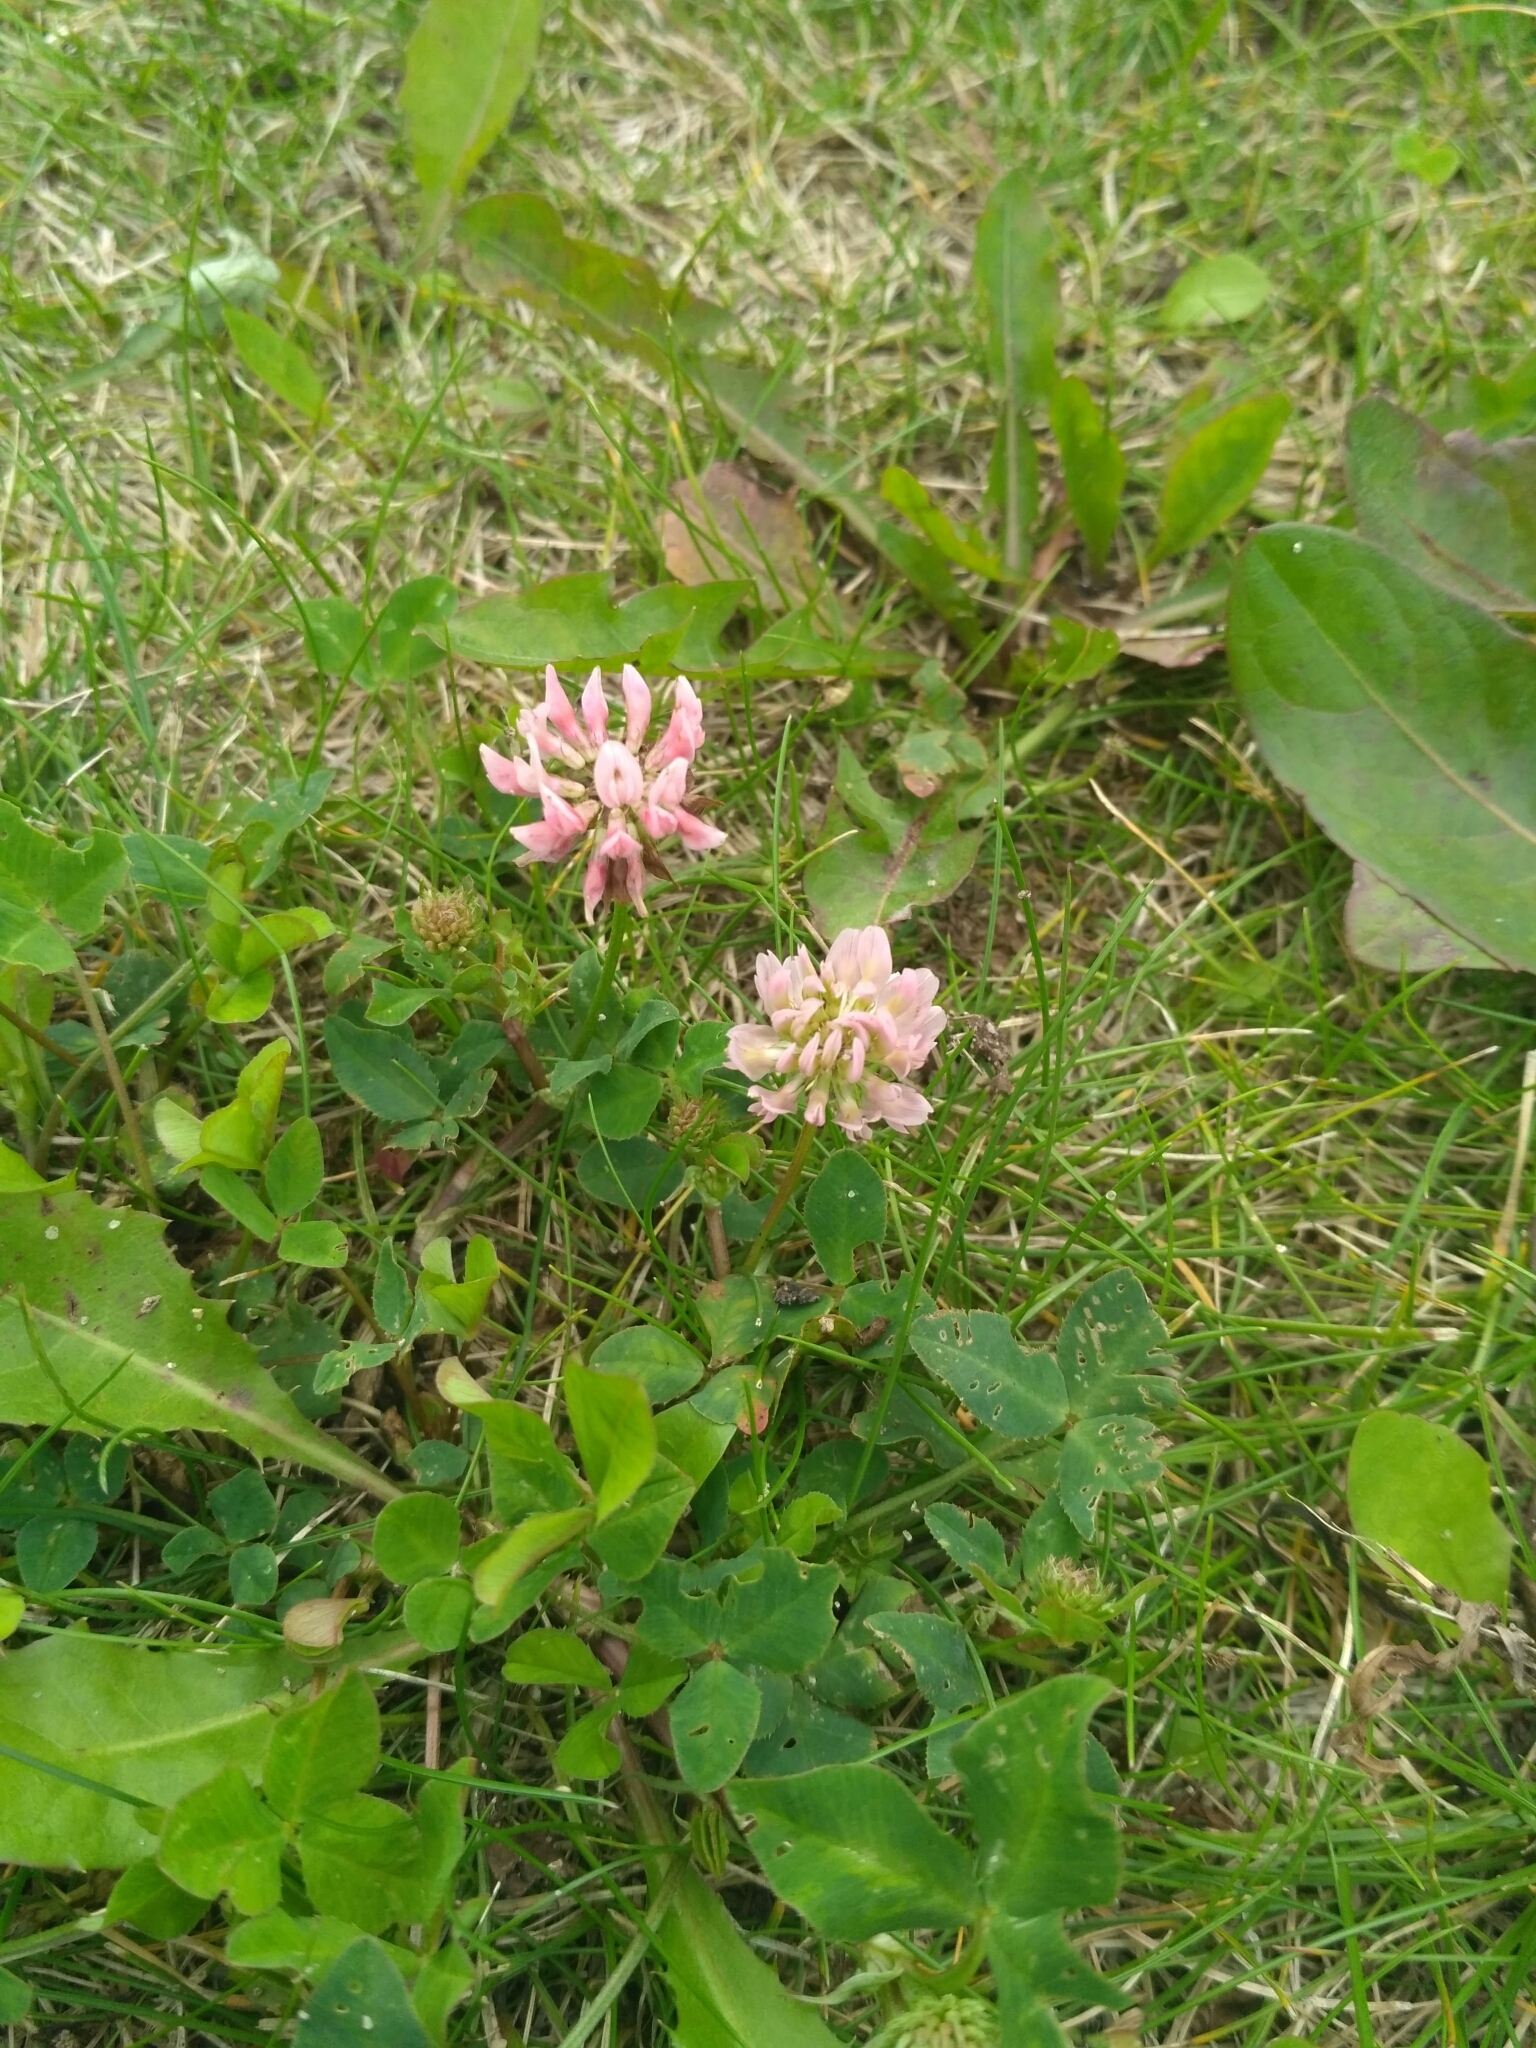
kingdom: Plantae
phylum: Tracheophyta
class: Magnoliopsida
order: Fabales
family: Fabaceae
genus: Trifolium
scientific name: Trifolium hybridum
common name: Alsike clover
